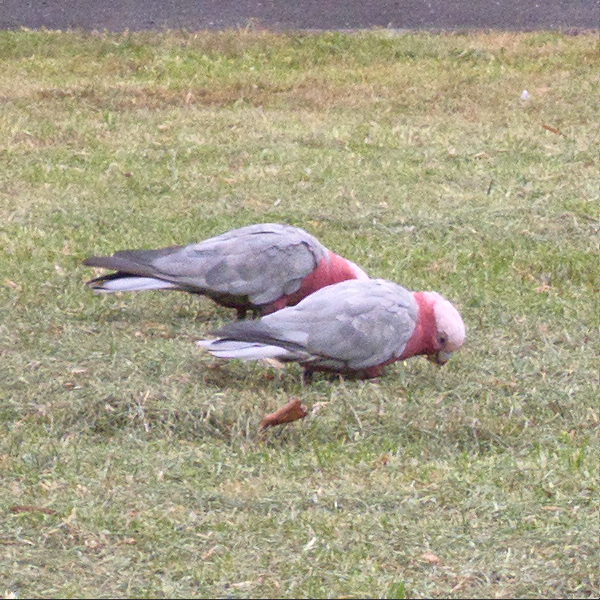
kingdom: Animalia
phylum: Chordata
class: Aves
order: Psittaciformes
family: Psittacidae
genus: Eolophus
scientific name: Eolophus roseicapilla
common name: Galah
